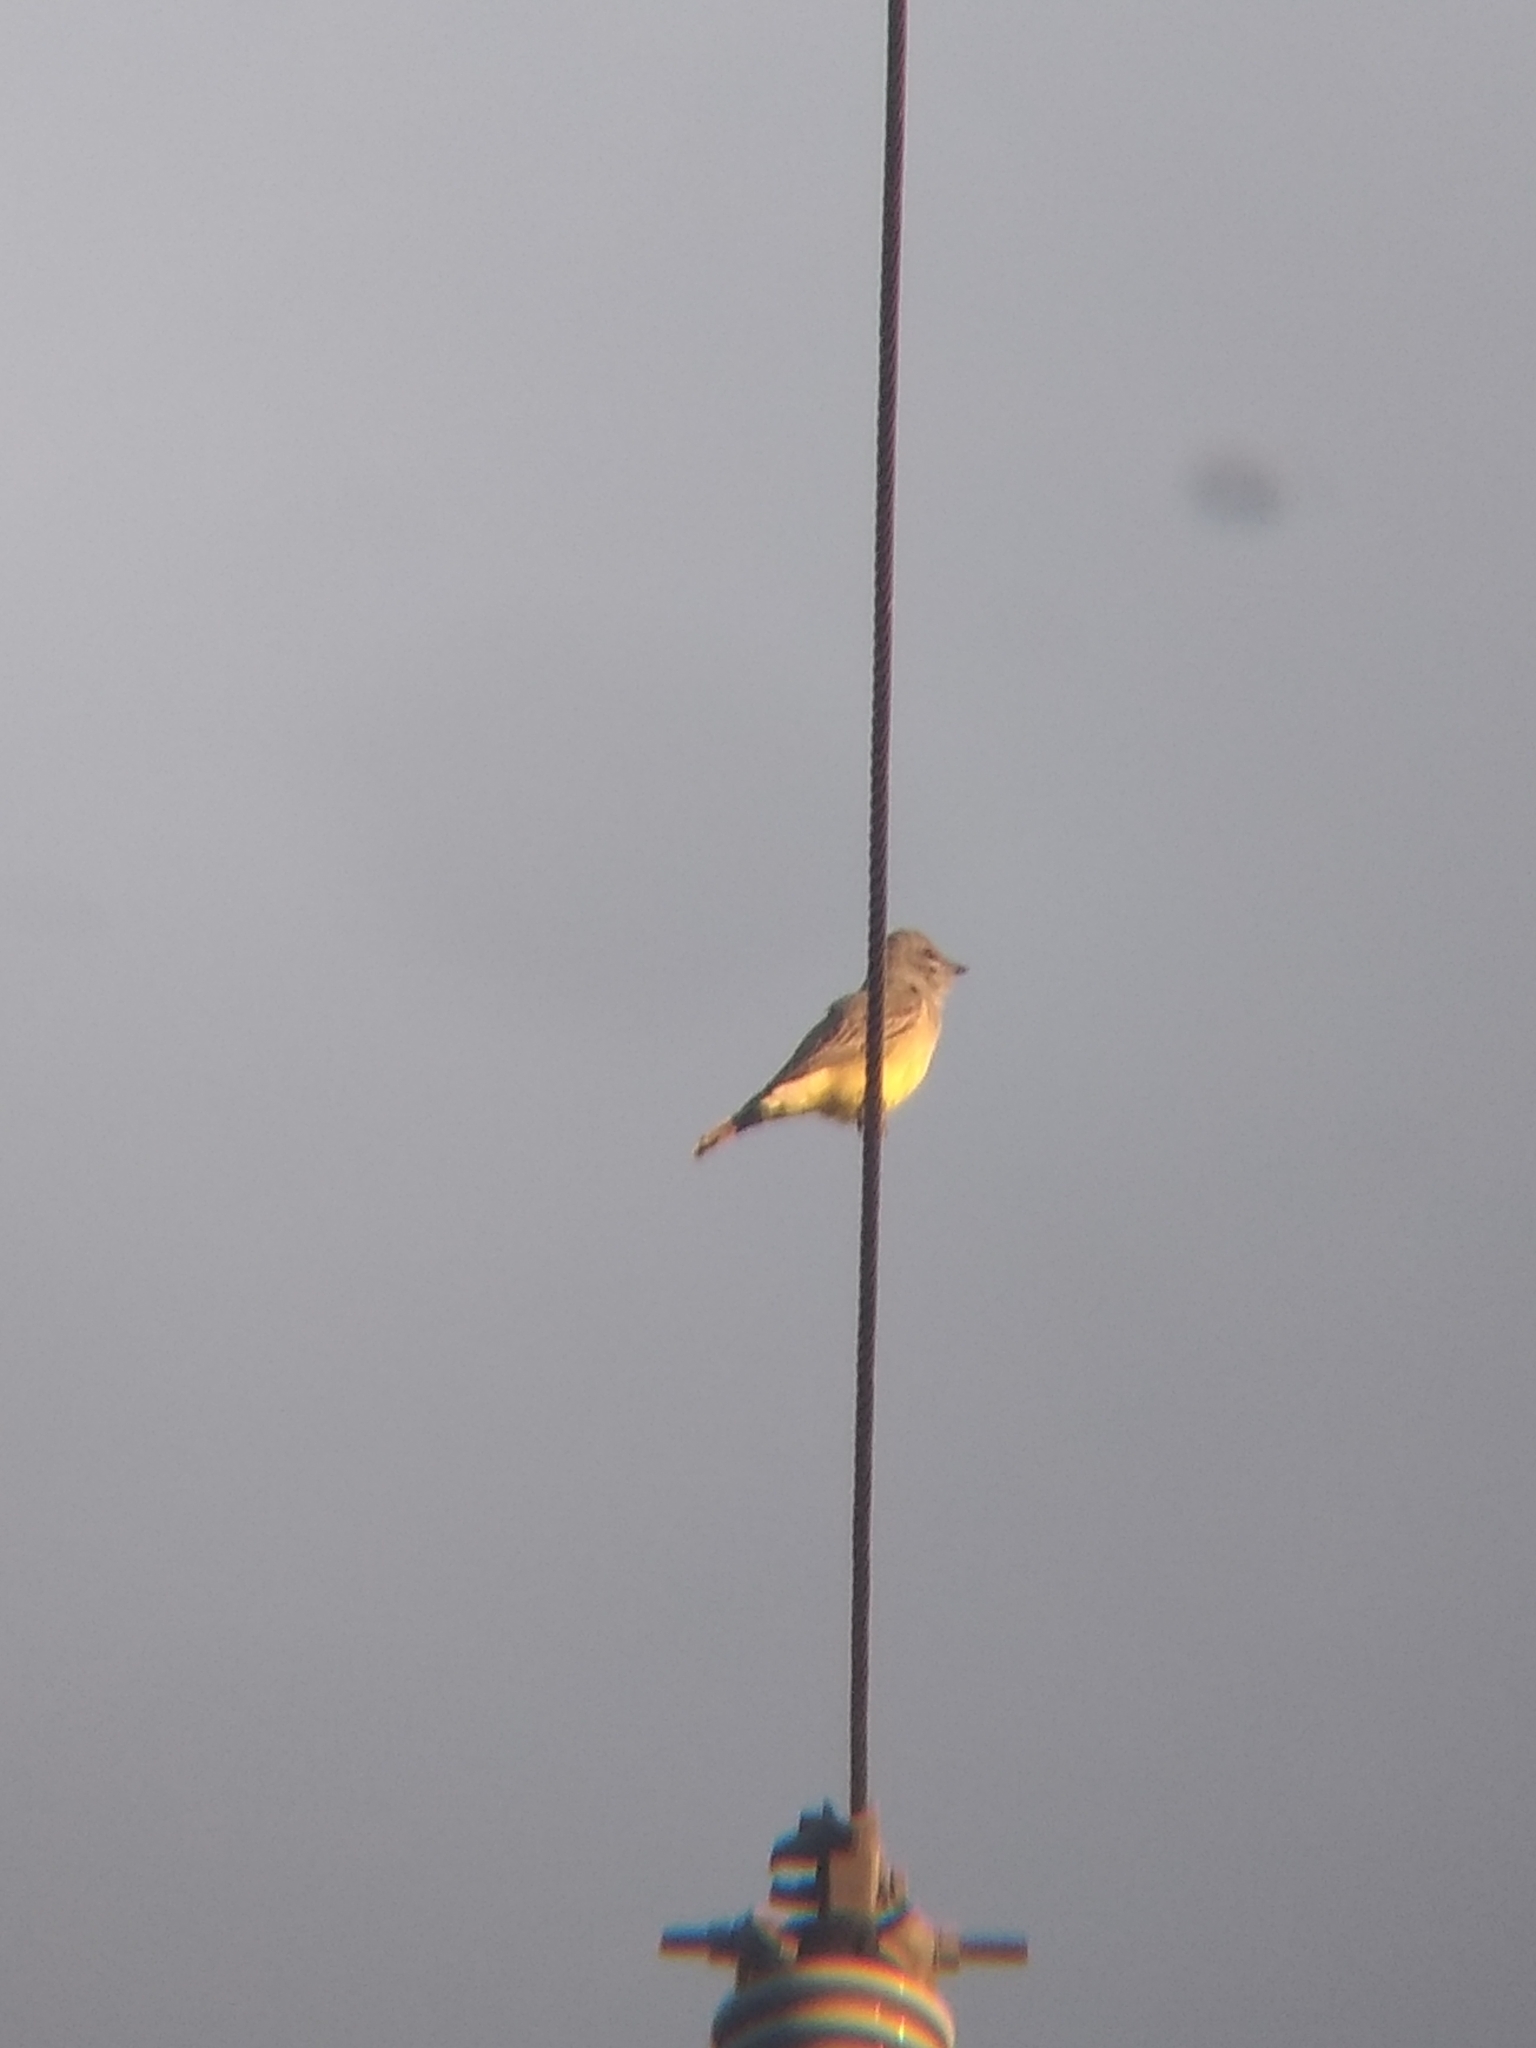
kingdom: Animalia
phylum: Chordata
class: Aves
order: Passeriformes
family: Tyrannidae
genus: Tyrannus
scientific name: Tyrannus vociferans
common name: Cassin's kingbird
